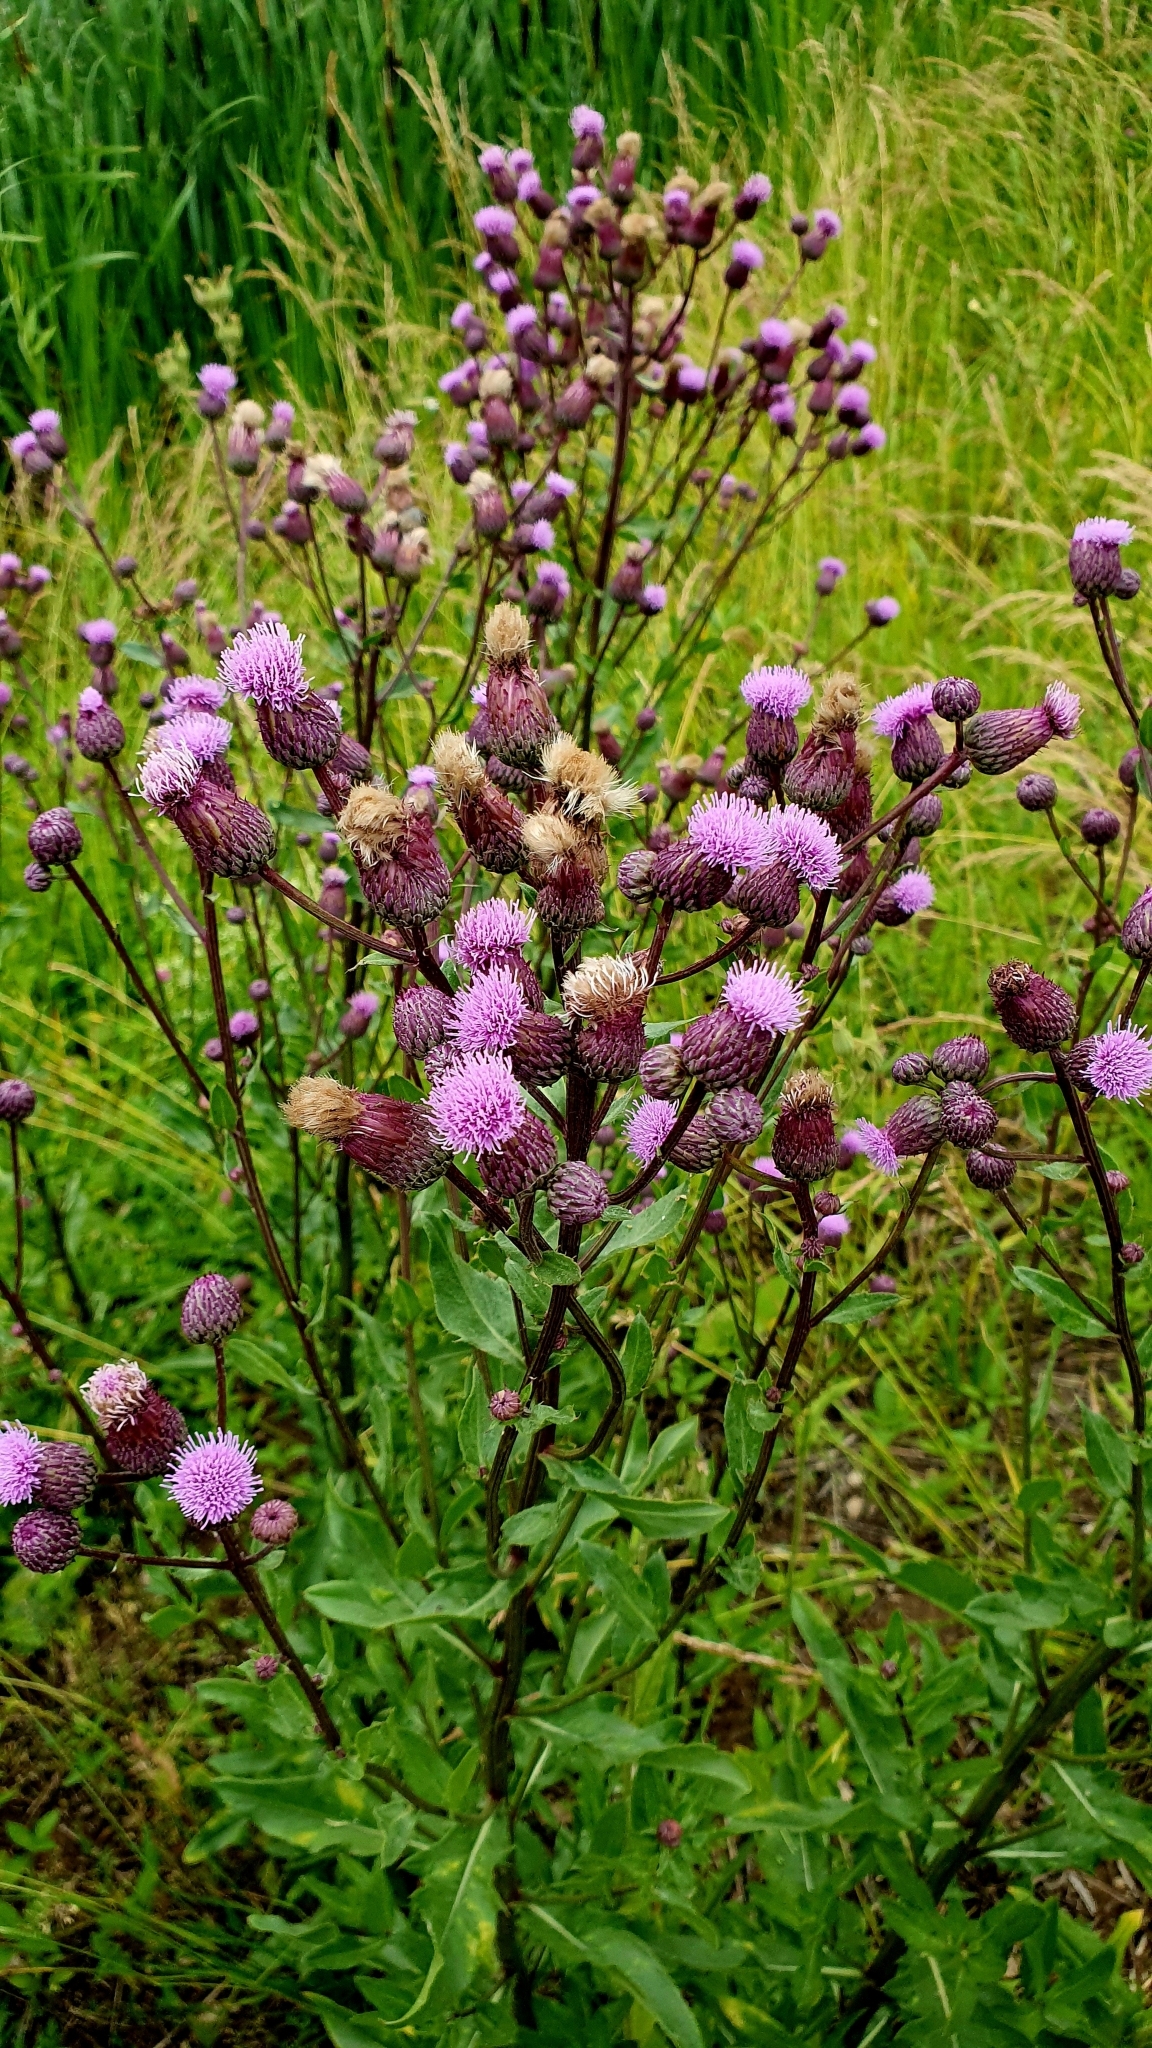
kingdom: Plantae
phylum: Tracheophyta
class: Magnoliopsida
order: Asterales
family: Asteraceae
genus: Cirsium
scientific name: Cirsium arvense
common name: Creeping thistle
